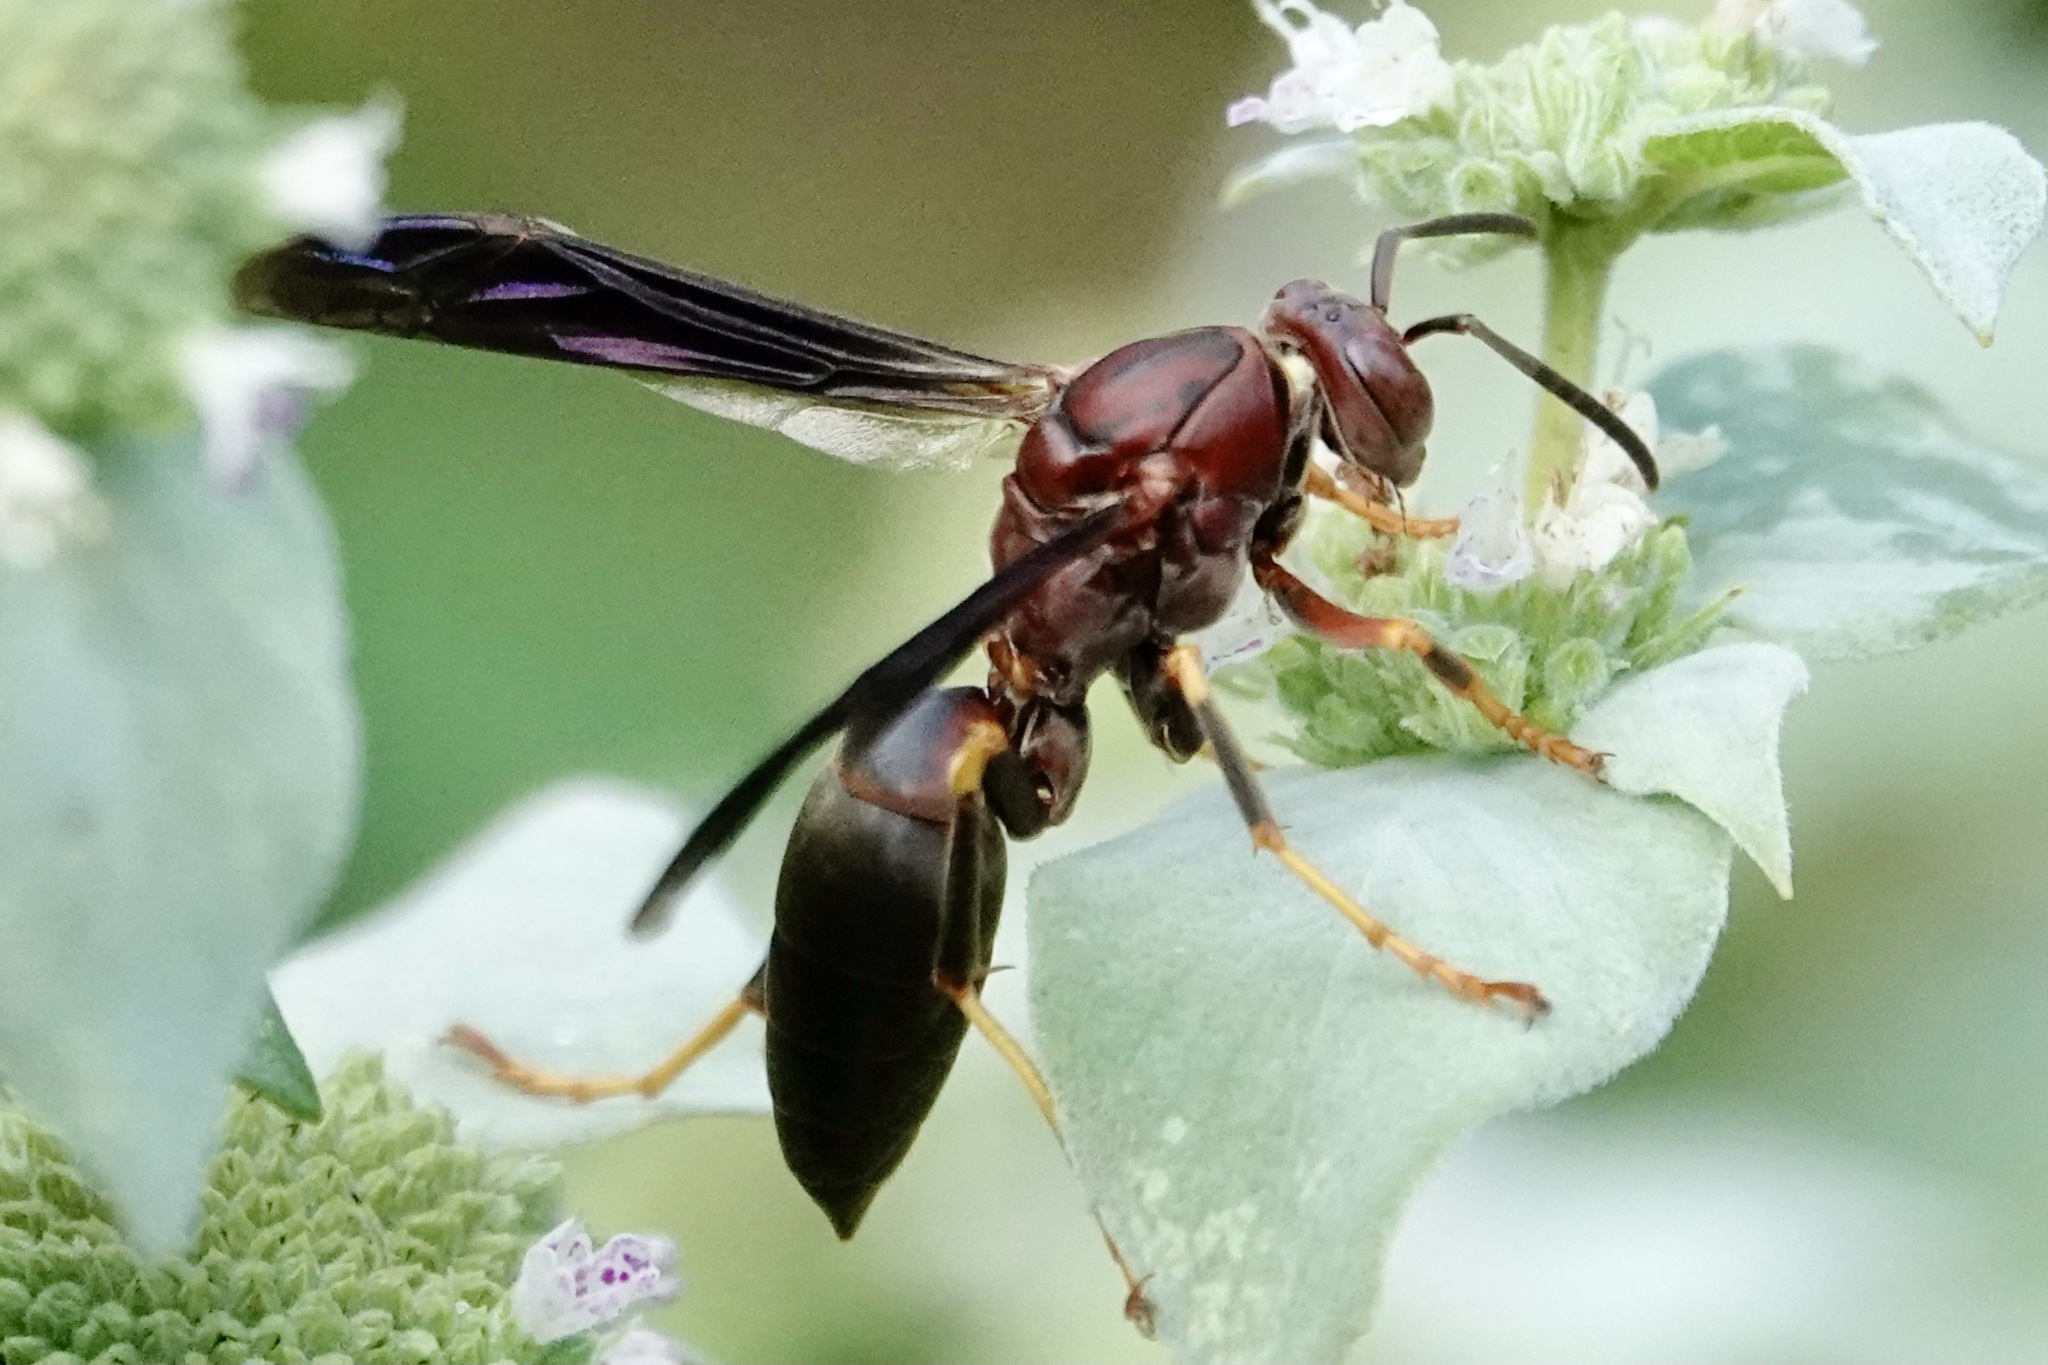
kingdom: Animalia
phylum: Arthropoda
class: Insecta
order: Hymenoptera
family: Eumenidae
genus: Polistes
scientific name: Polistes metricus
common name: Metric paper wasp
